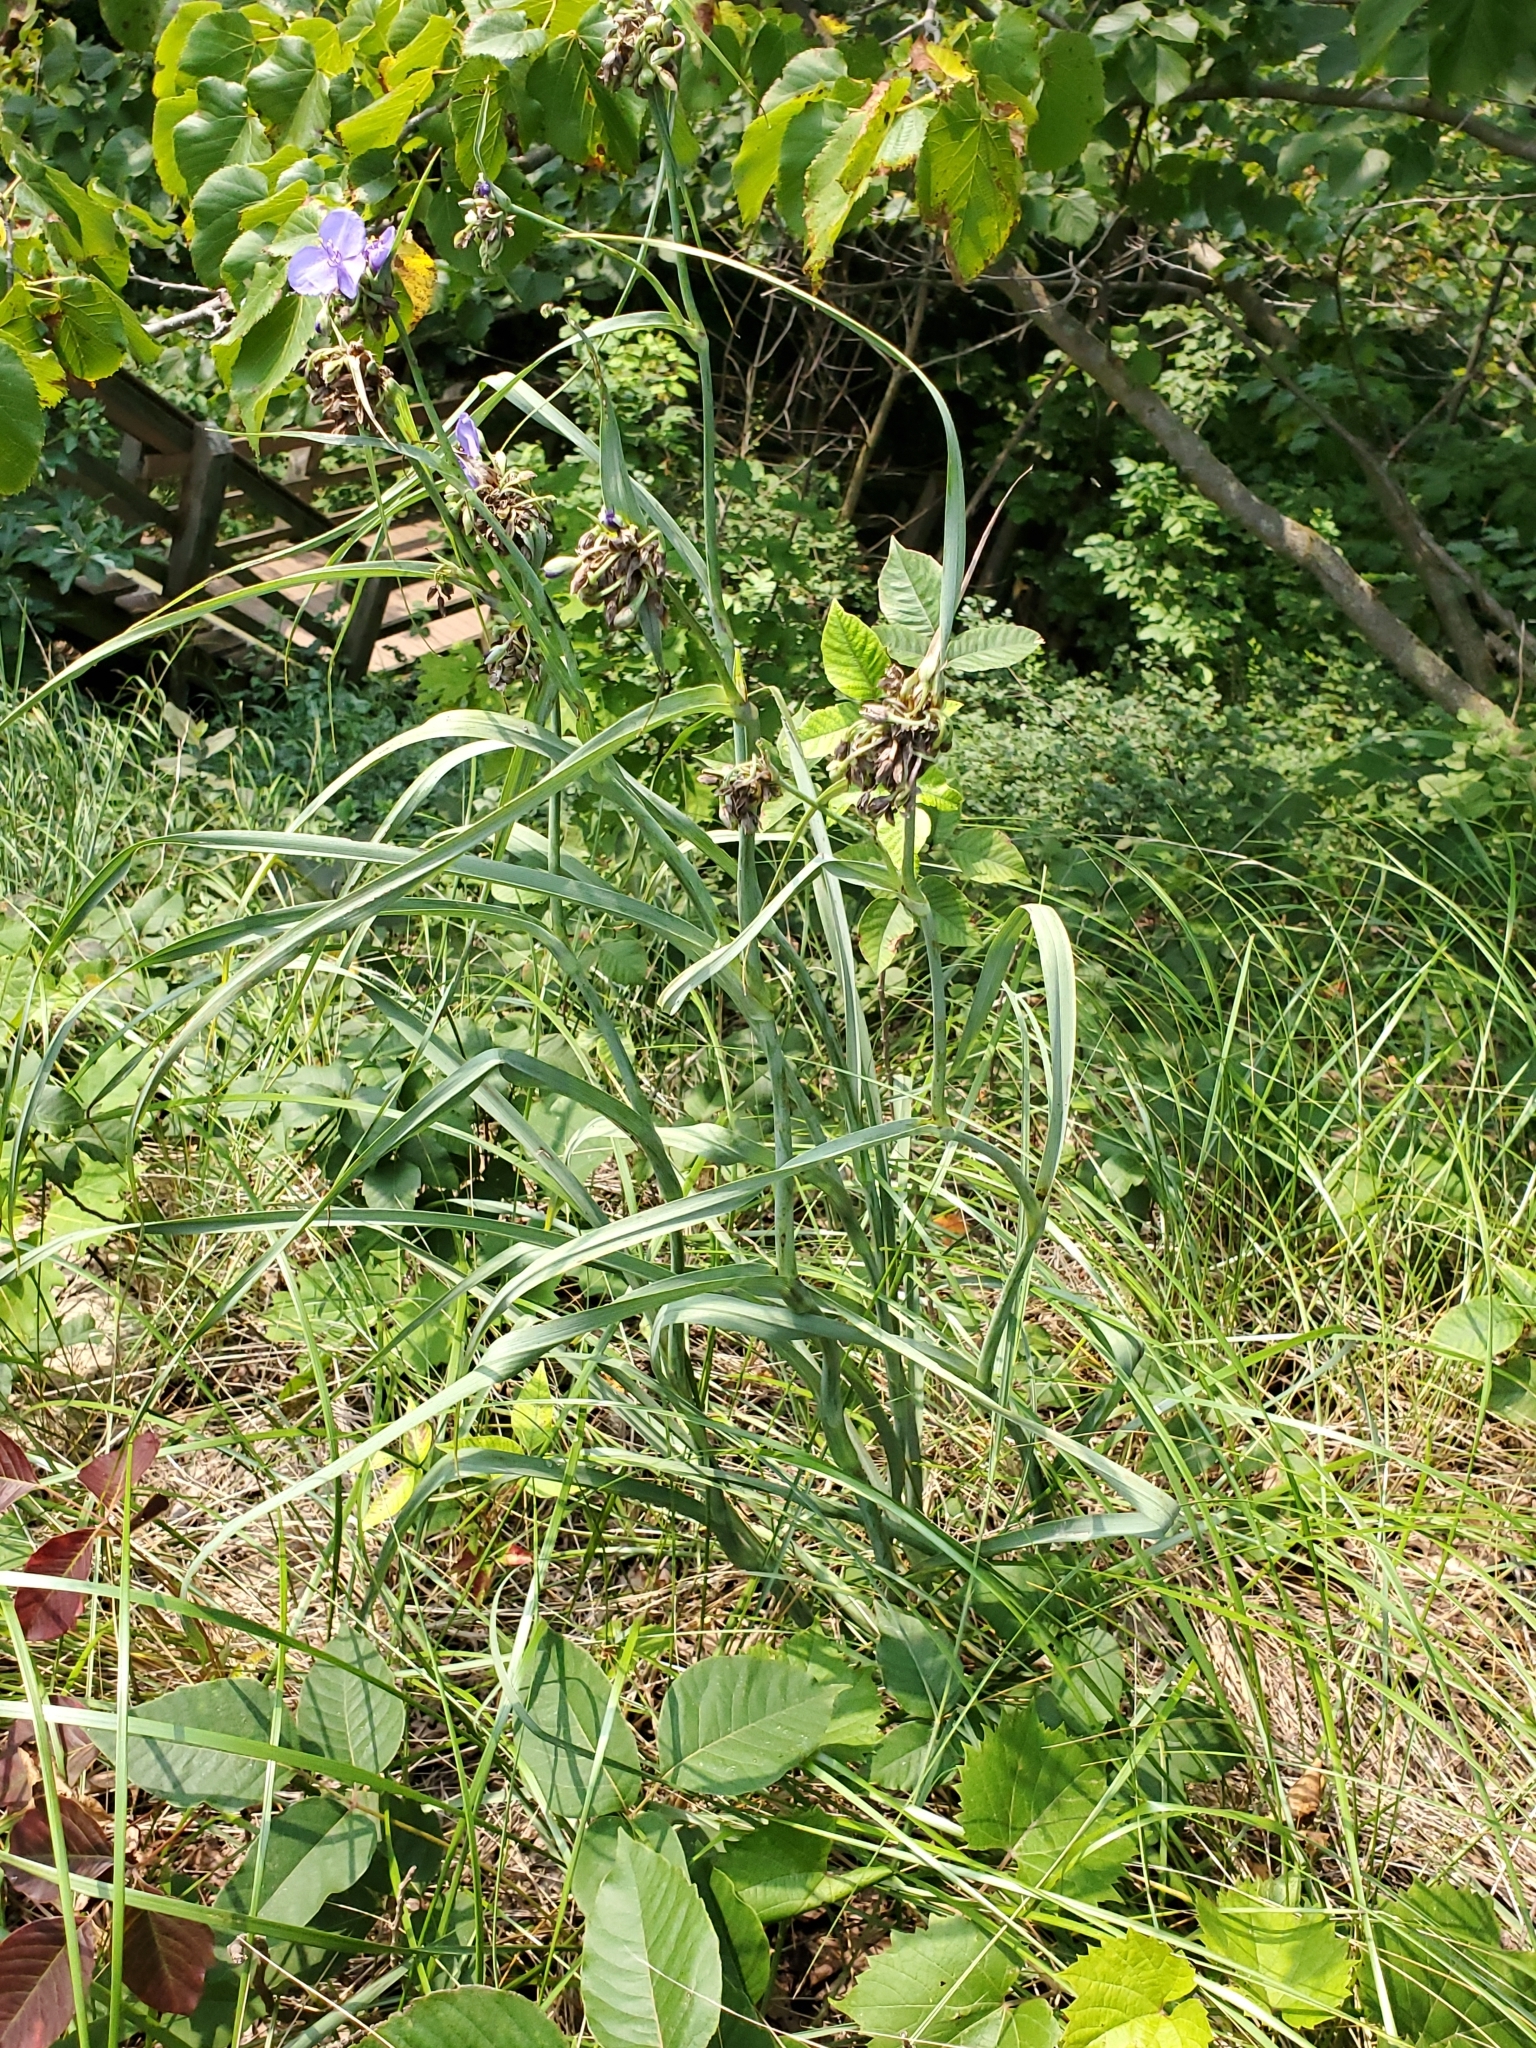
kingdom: Plantae
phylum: Tracheophyta
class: Liliopsida
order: Commelinales
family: Commelinaceae
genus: Tradescantia
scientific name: Tradescantia ohiensis
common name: Ohio spiderwort
